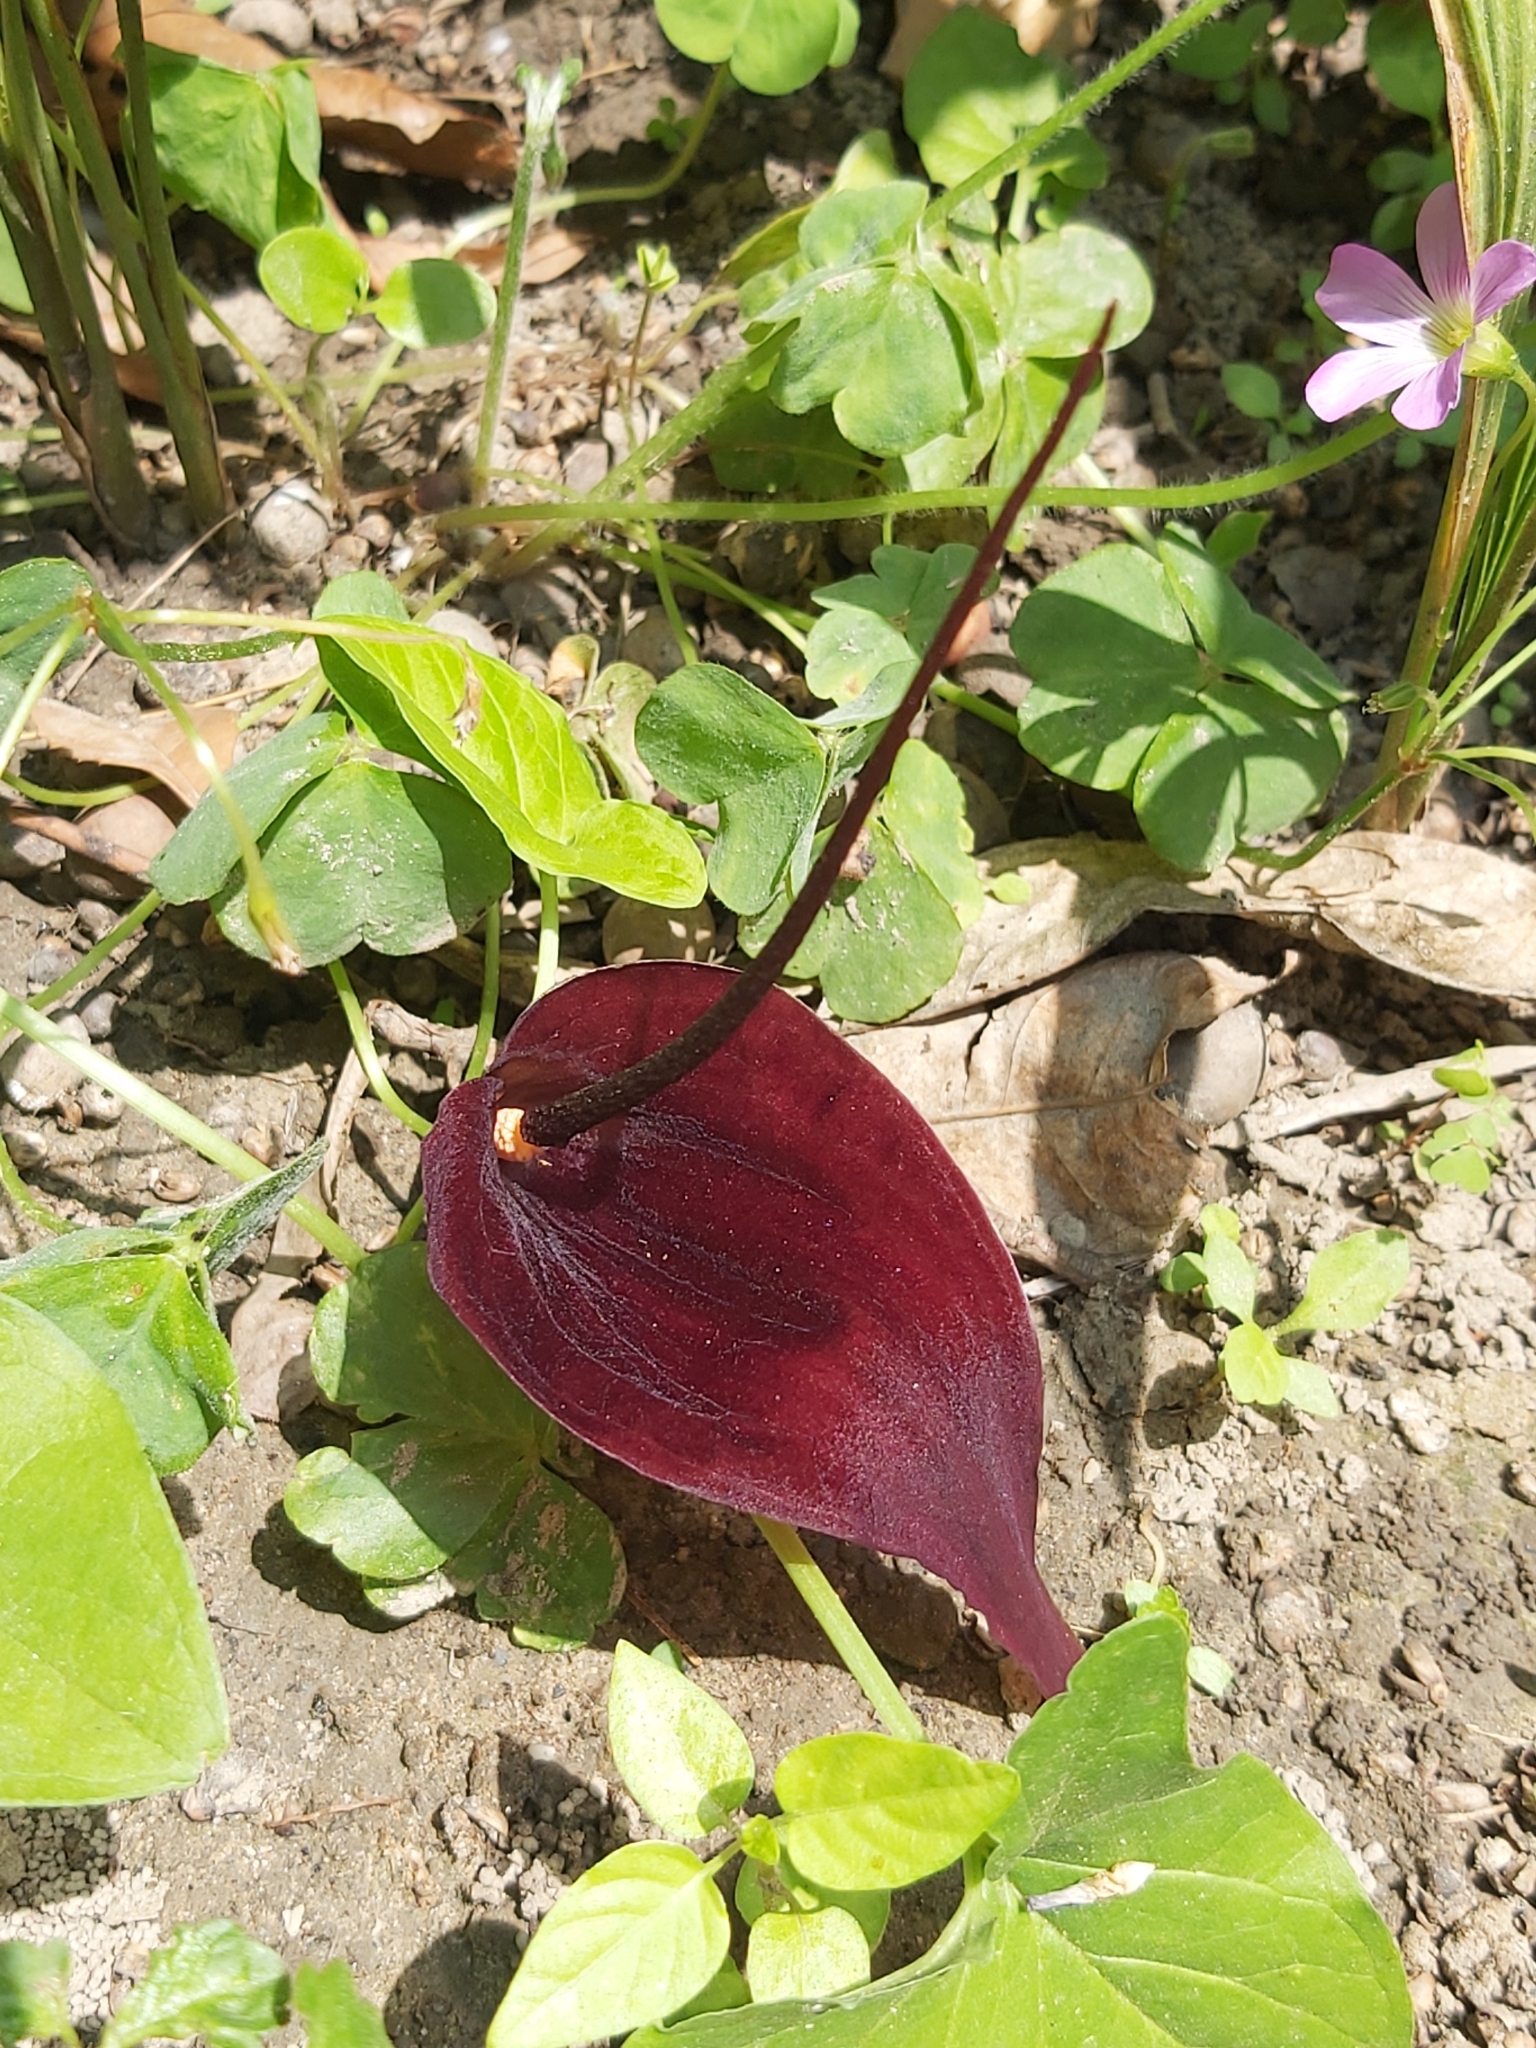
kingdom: Plantae
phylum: Tracheophyta
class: Liliopsida
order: Alismatales
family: Araceae
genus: Typhonium
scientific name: Typhonium blumei
